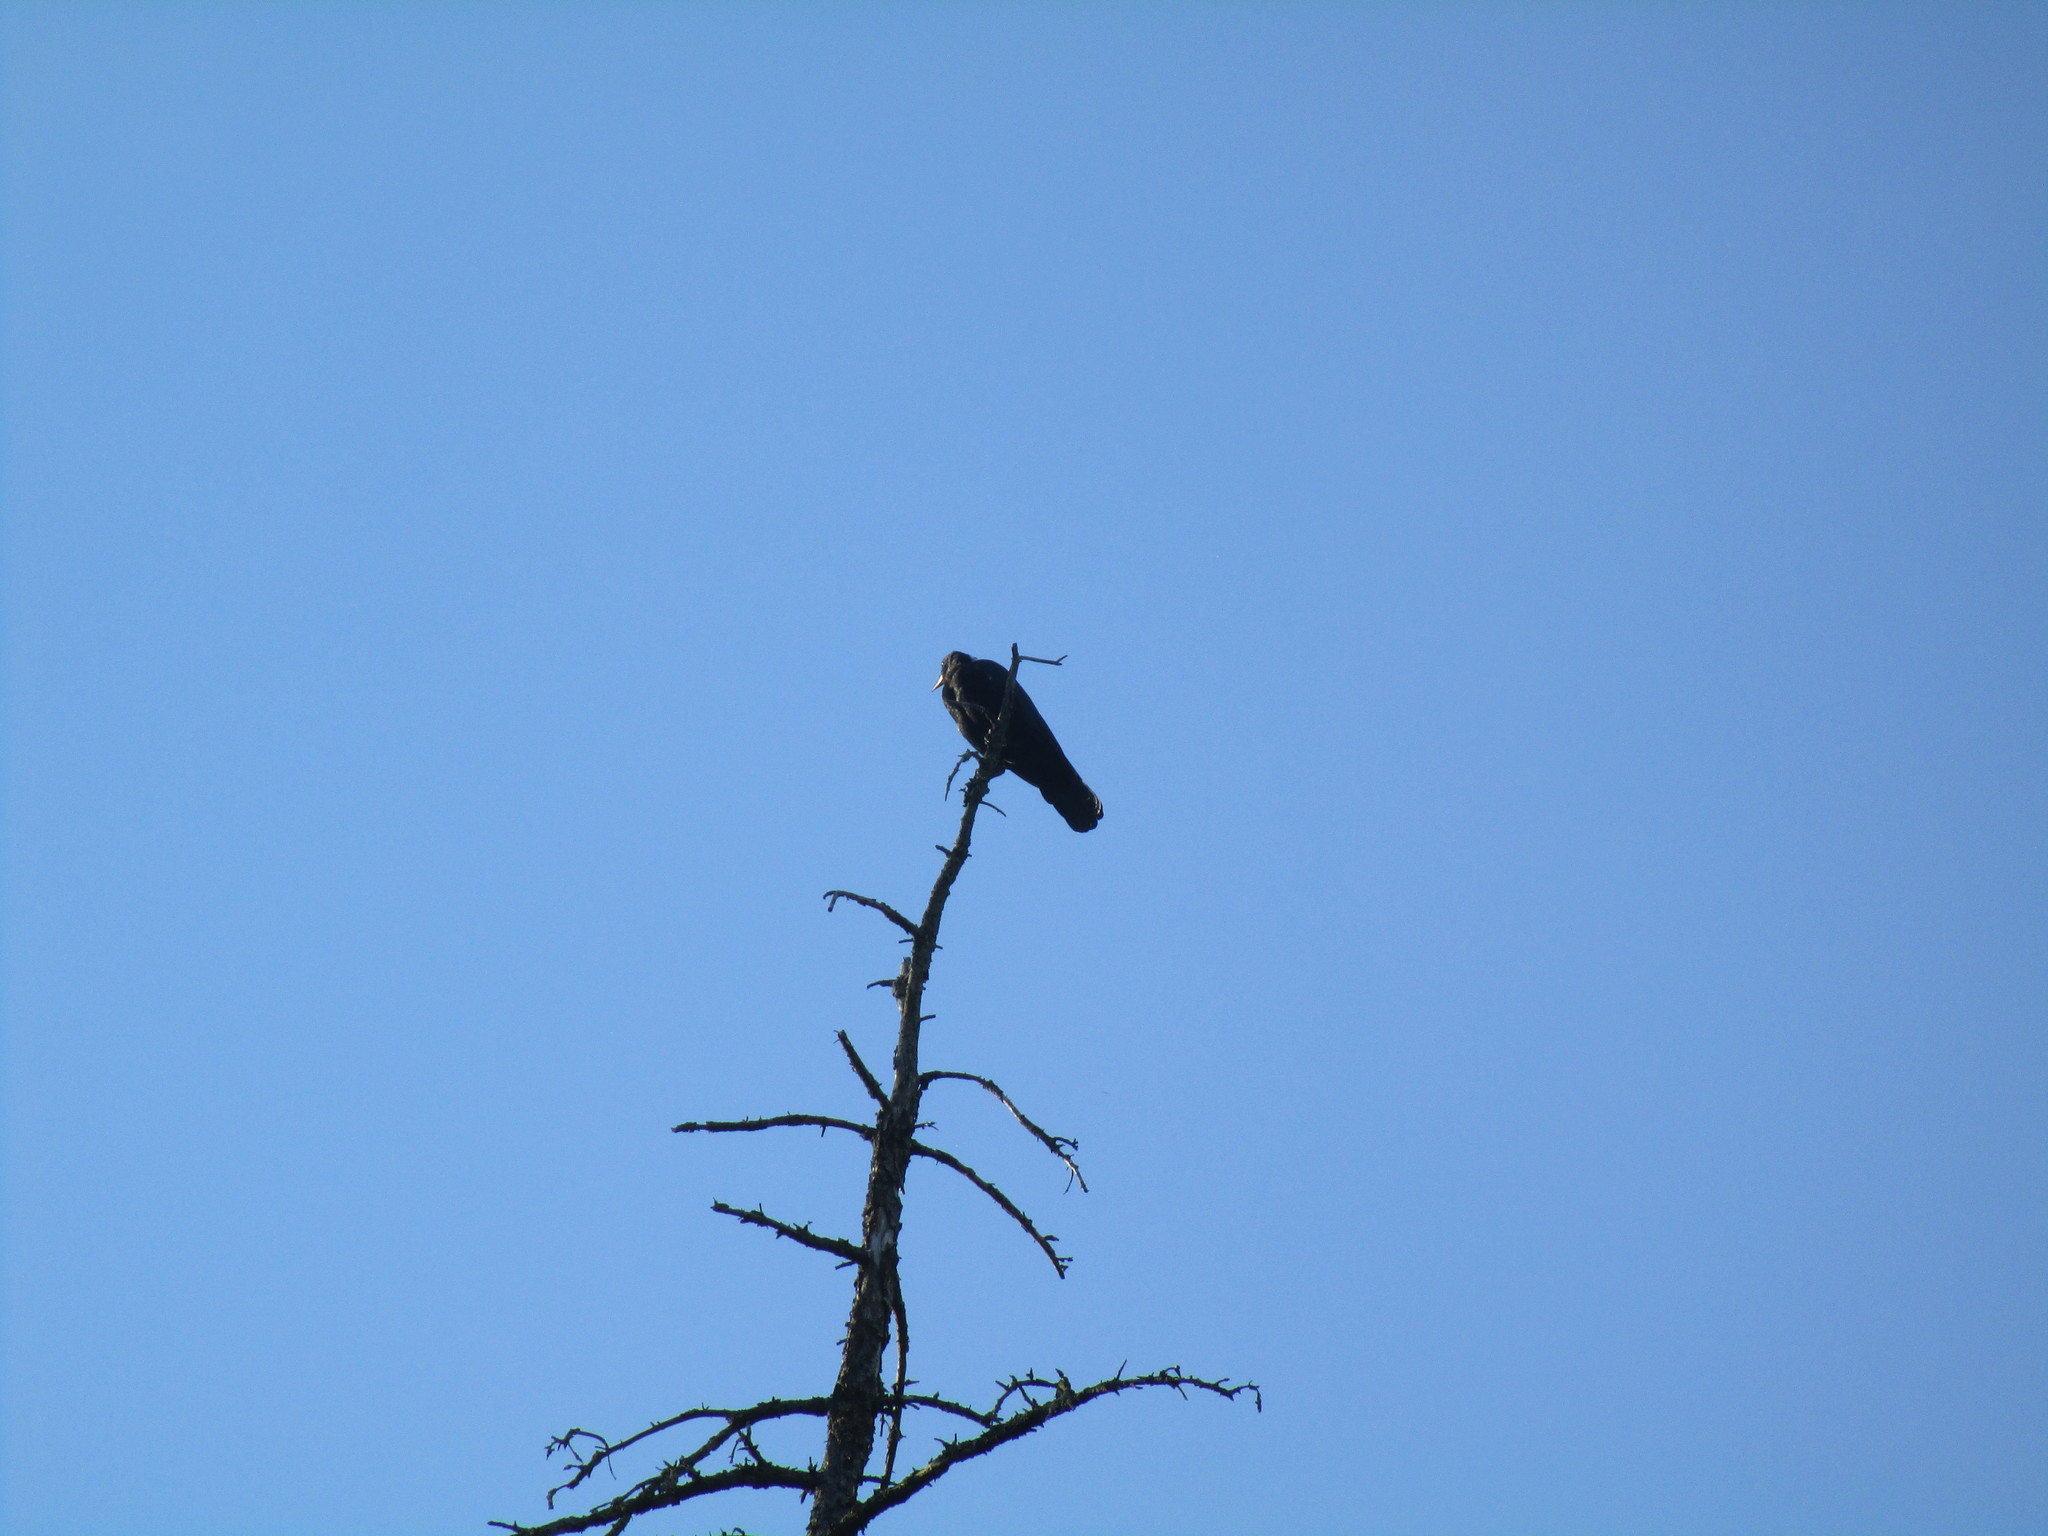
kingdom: Animalia
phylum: Chordata
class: Aves
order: Passeriformes
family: Corvidae
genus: Corvus
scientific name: Corvus brachyrhynchos
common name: American crow
